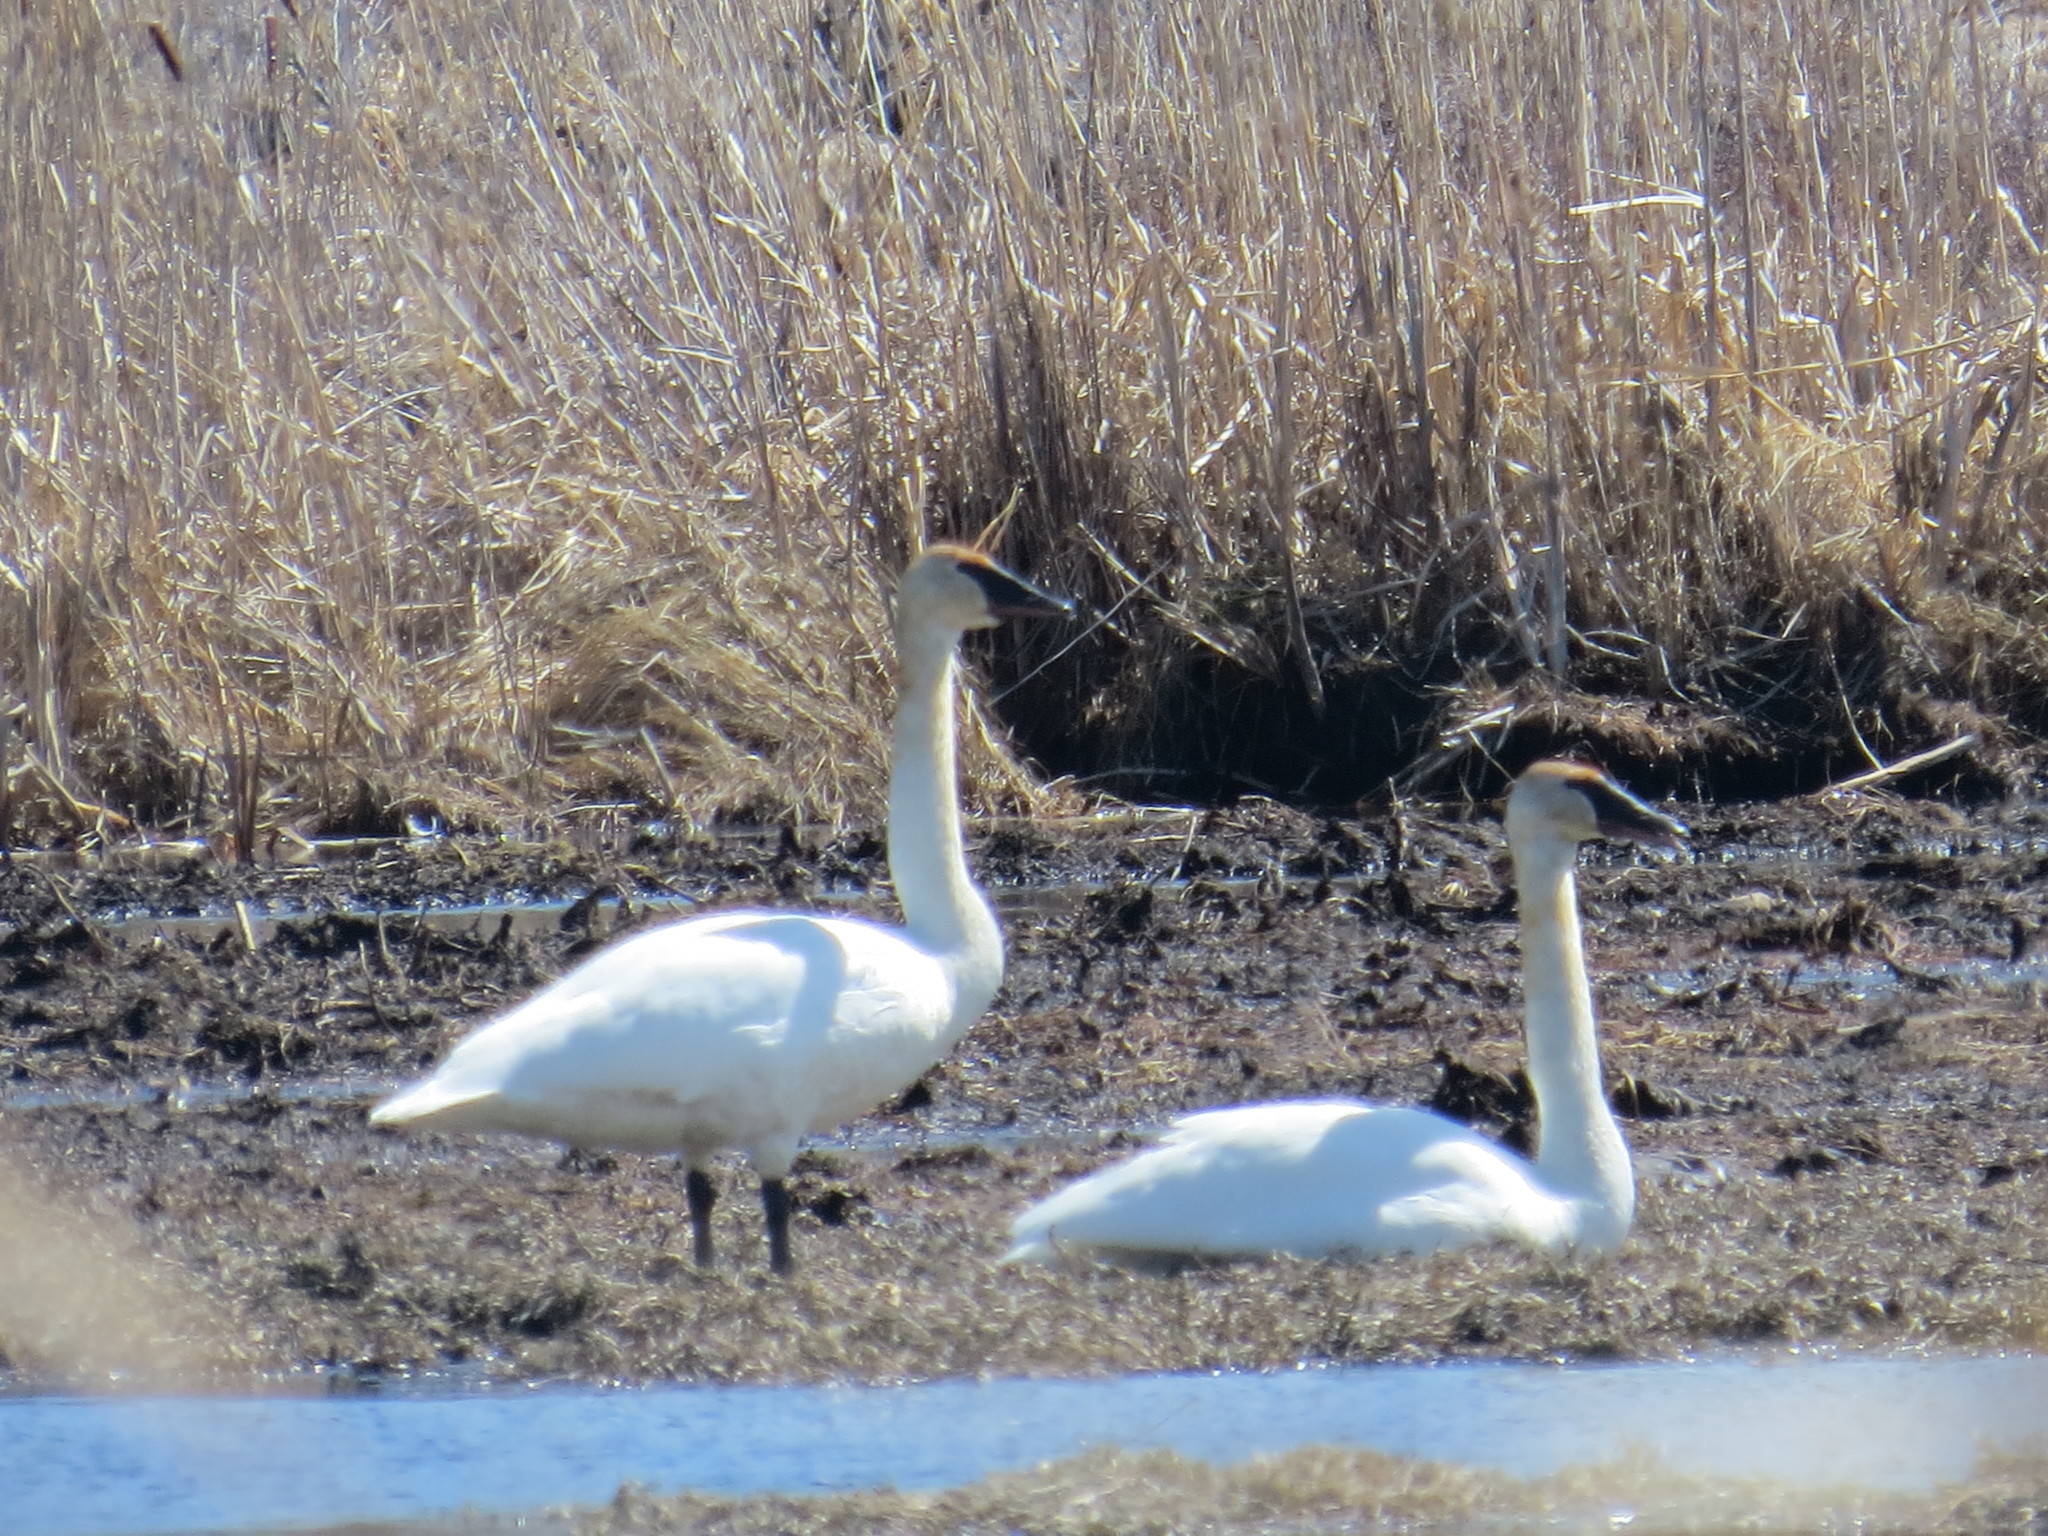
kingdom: Animalia
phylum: Chordata
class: Aves
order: Anseriformes
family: Anatidae
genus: Cygnus
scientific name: Cygnus buccinator
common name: Trumpeter swan
